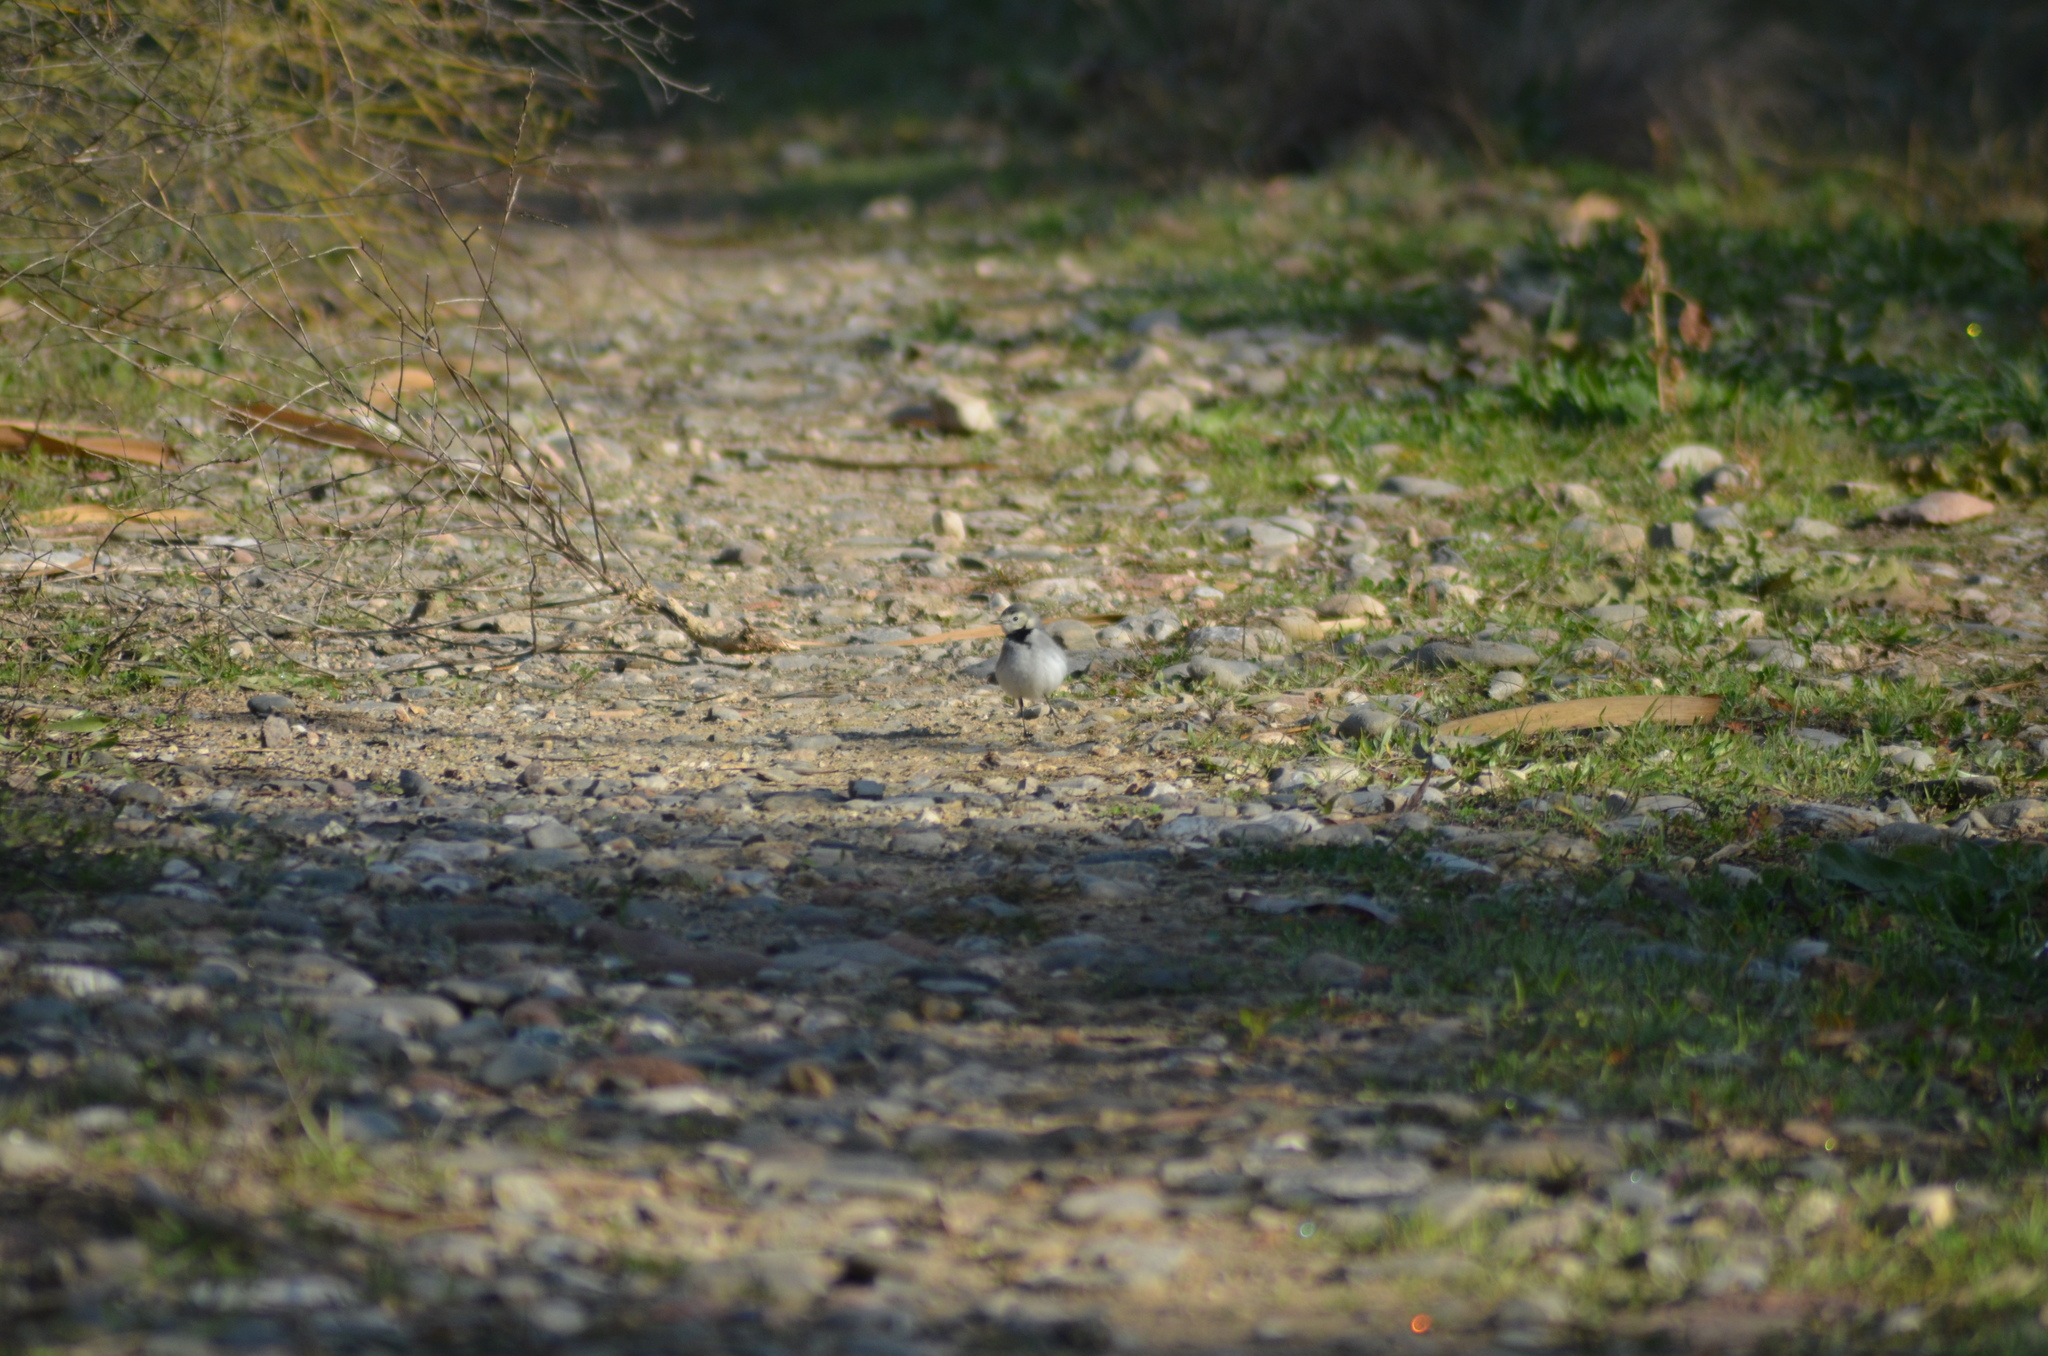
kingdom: Animalia
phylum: Chordata
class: Aves
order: Passeriformes
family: Motacillidae
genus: Motacilla
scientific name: Motacilla alba
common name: White wagtail
